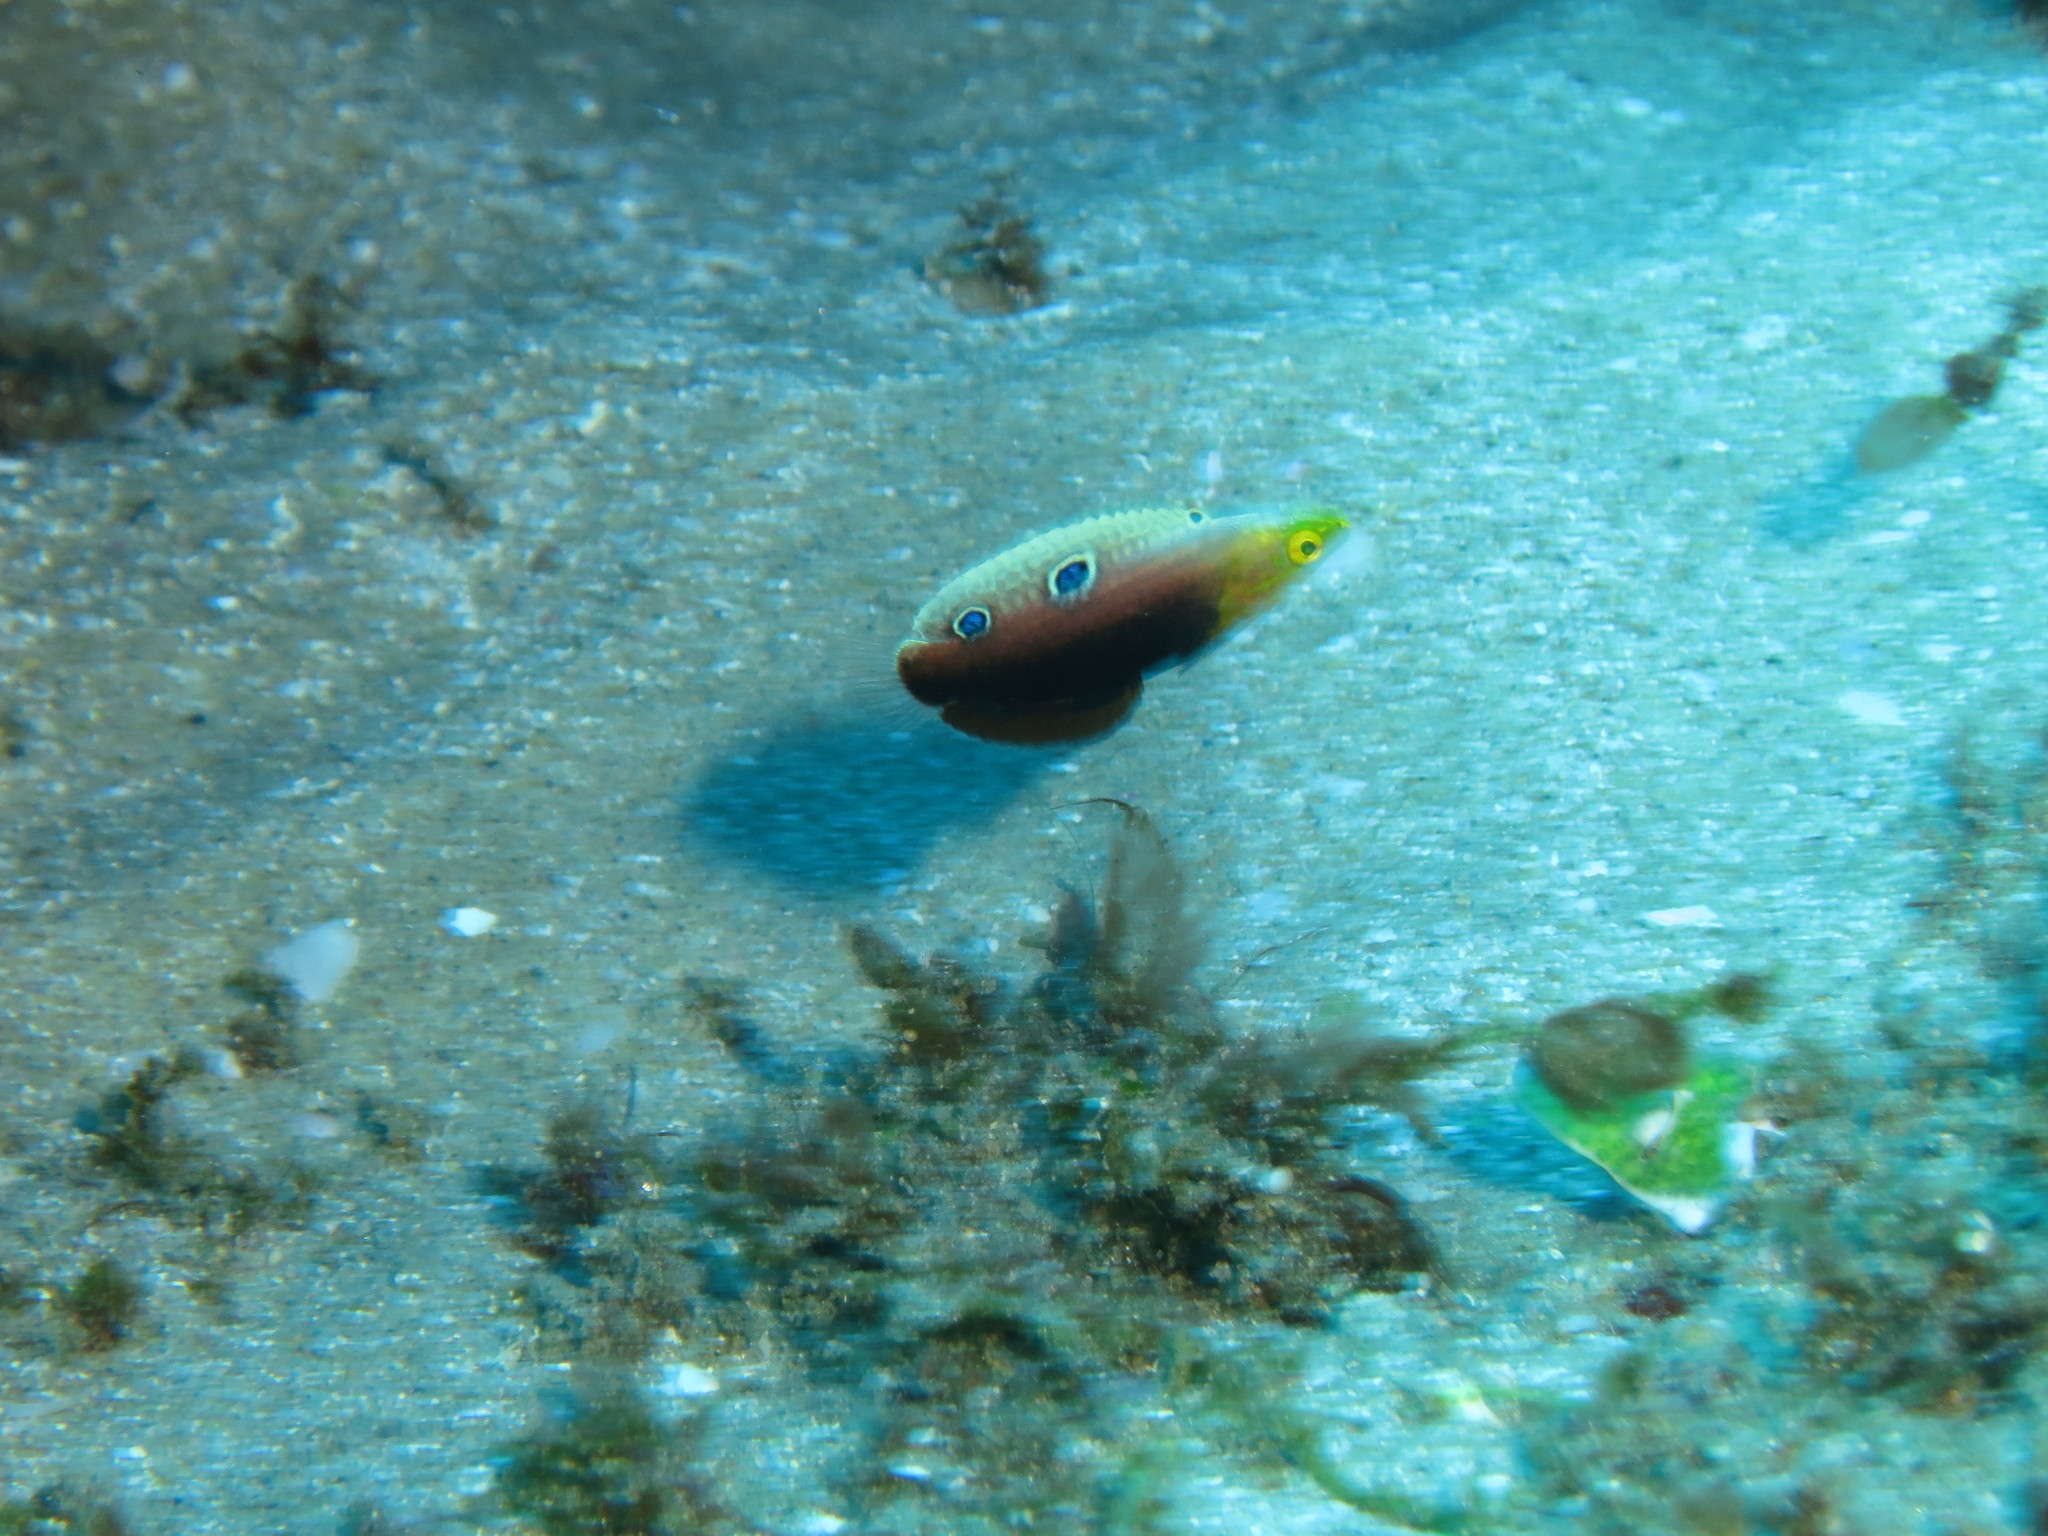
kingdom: Animalia
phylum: Chordata
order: Perciformes
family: Labridae
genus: Halichoeres
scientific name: Halichoeres iridis
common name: Rainbow wrasse
